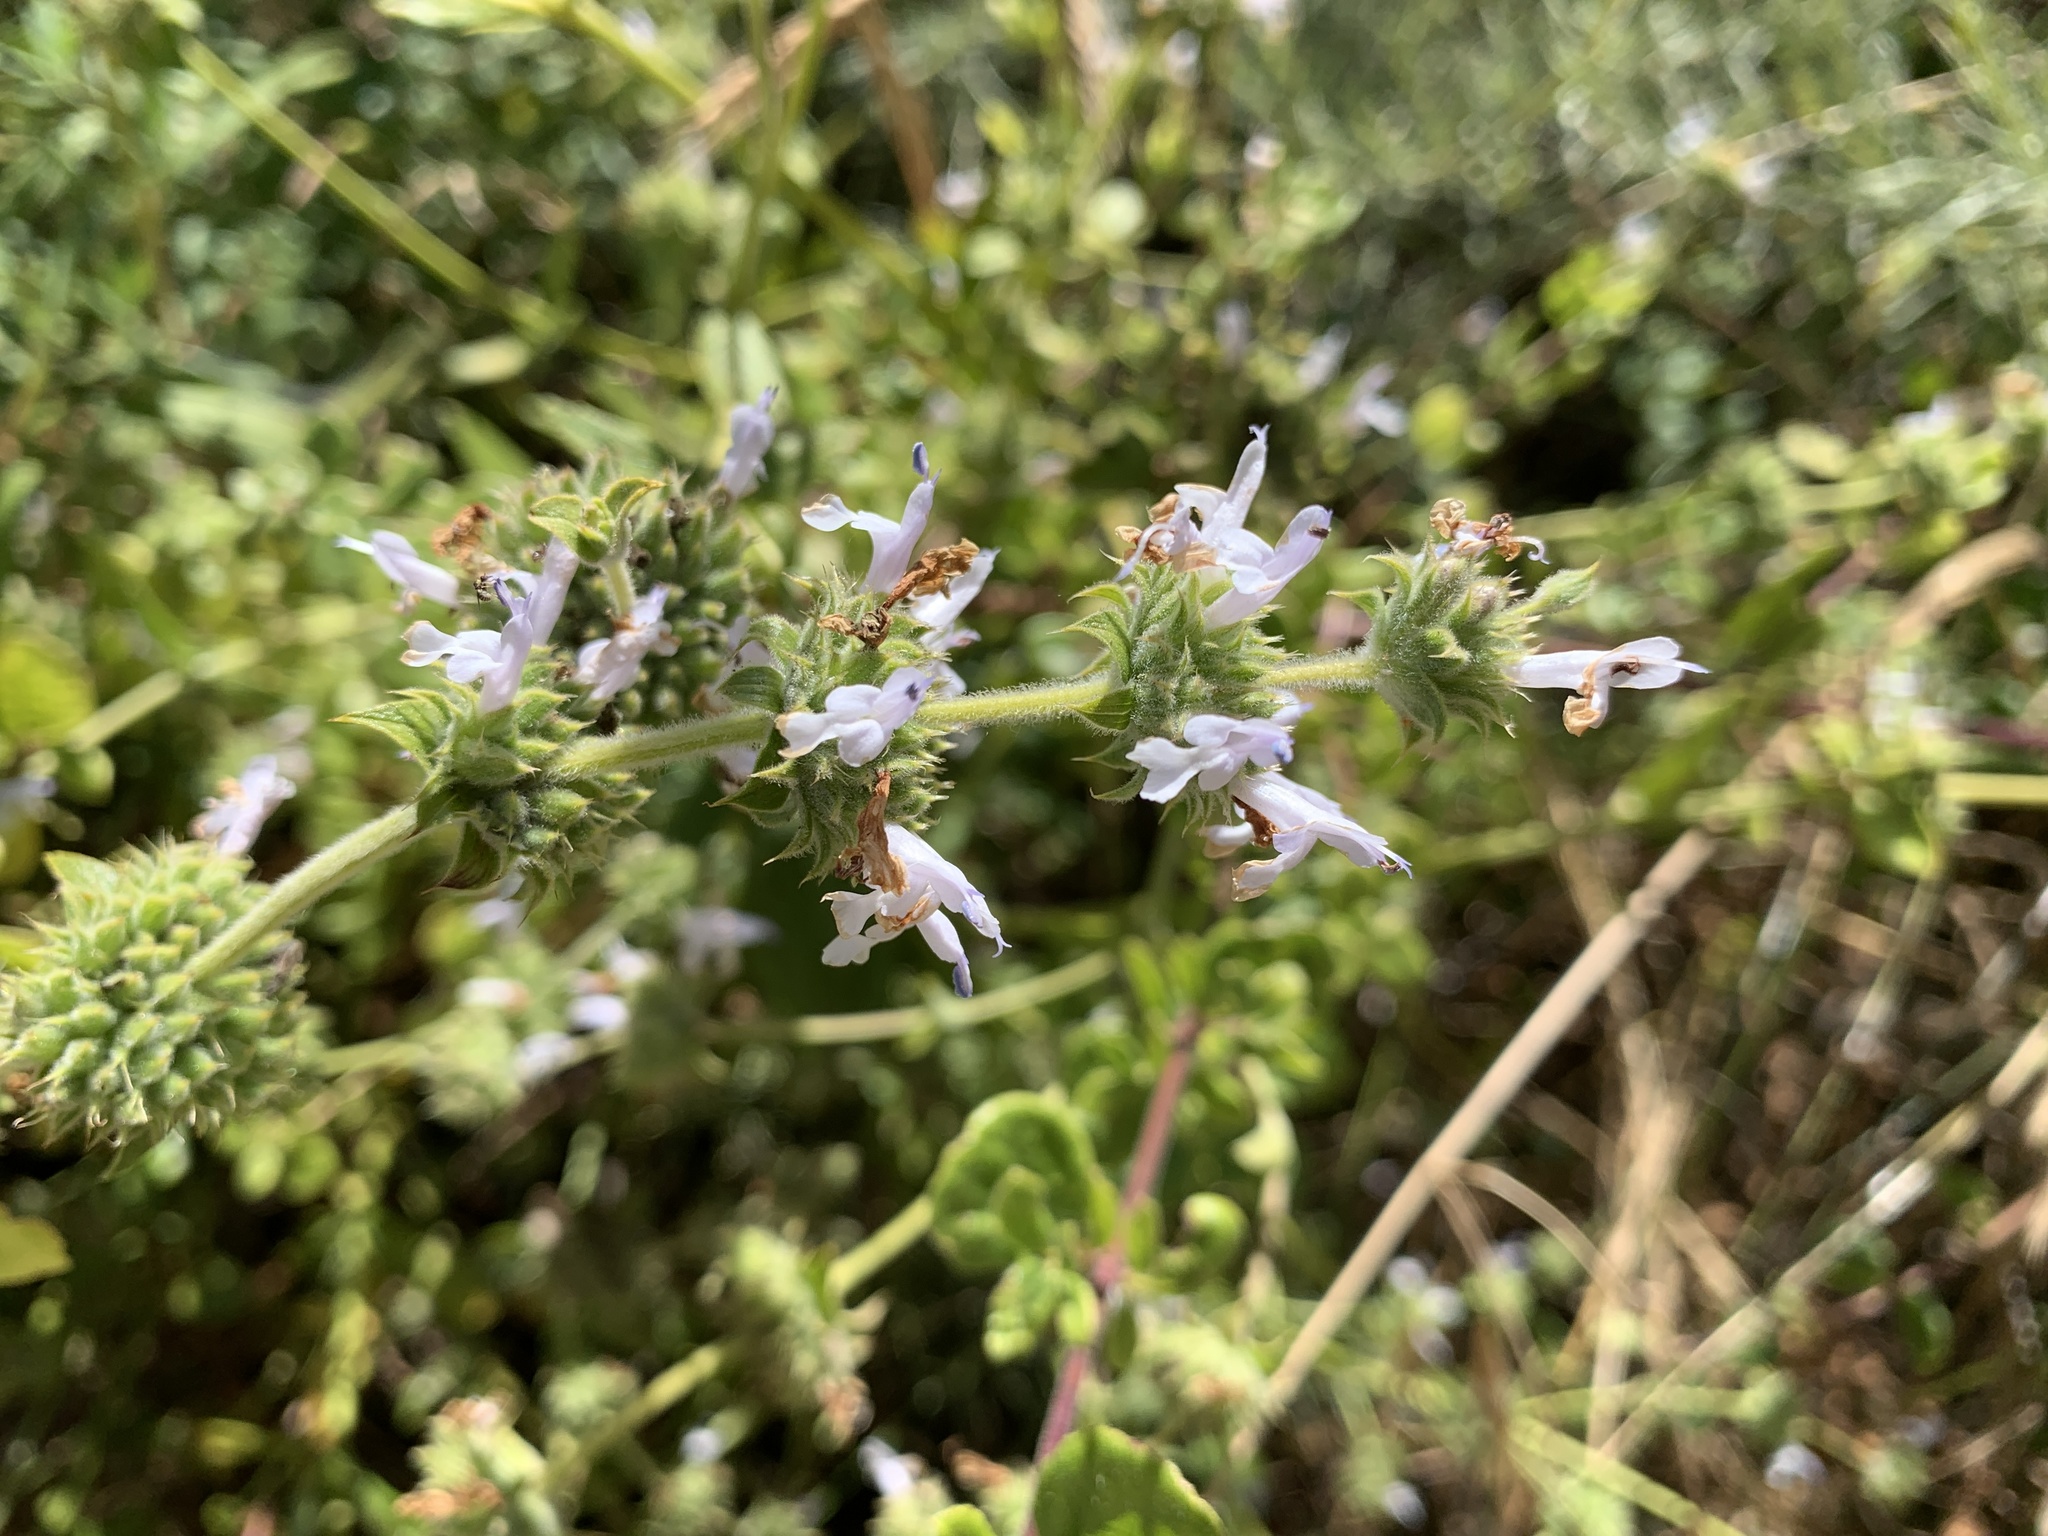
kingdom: Plantae
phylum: Tracheophyta
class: Magnoliopsida
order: Lamiales
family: Lamiaceae
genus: Salvia
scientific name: Salvia mellifera
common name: Black sage
